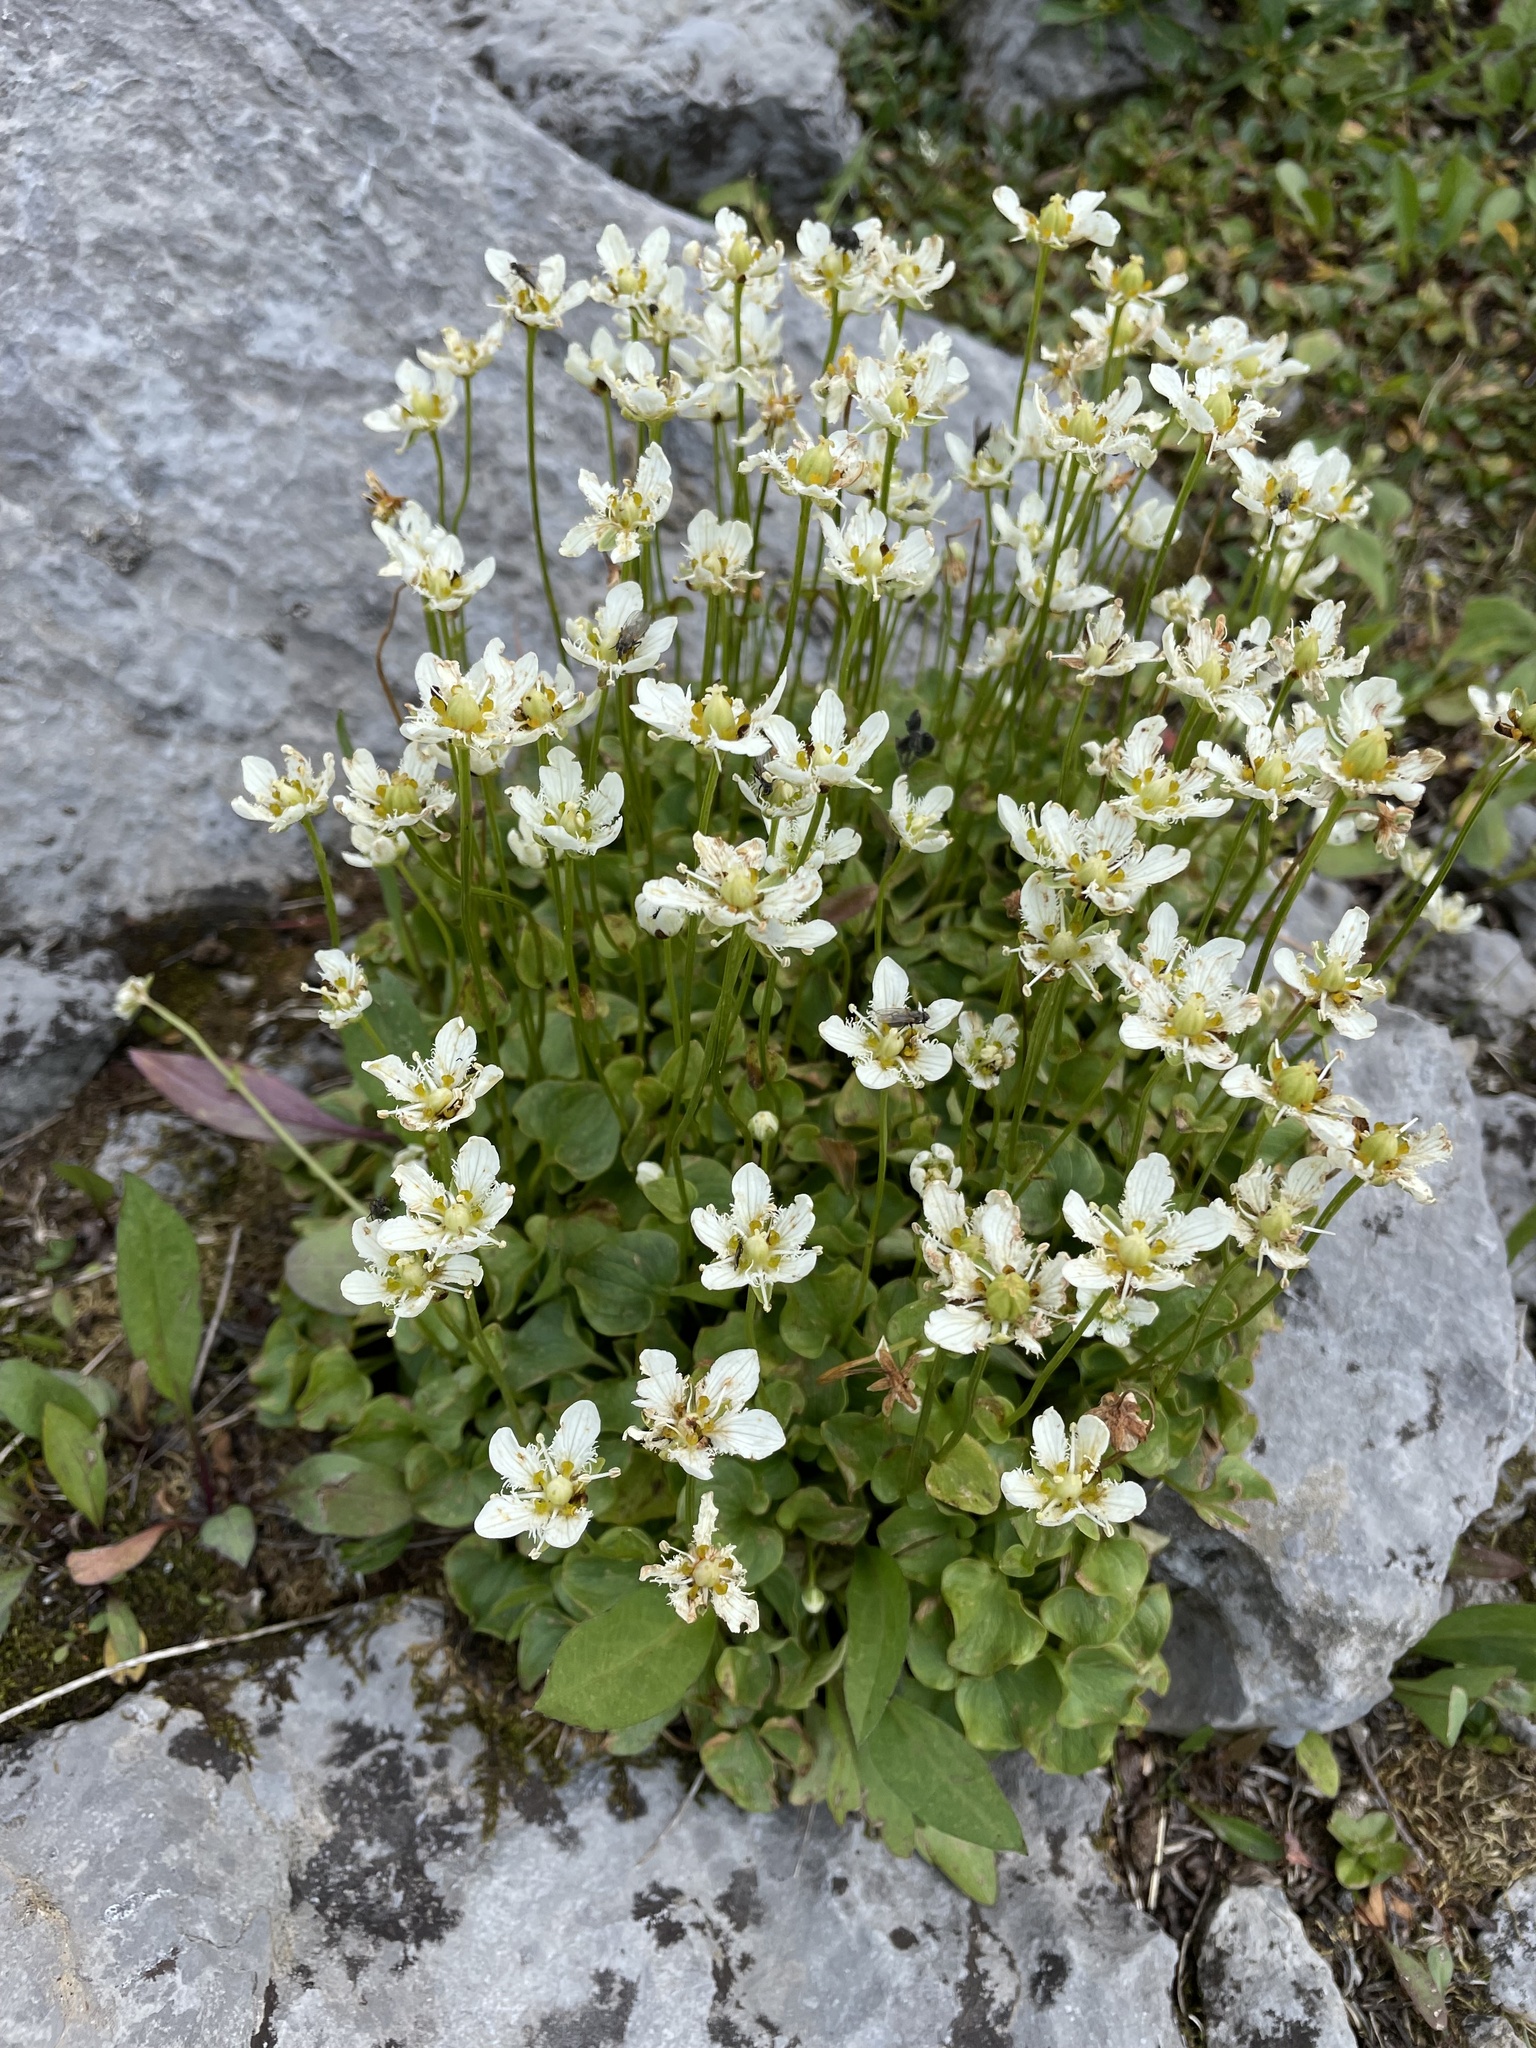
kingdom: Plantae
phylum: Tracheophyta
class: Magnoliopsida
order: Celastrales
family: Parnassiaceae
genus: Parnassia
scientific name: Parnassia fimbriata
